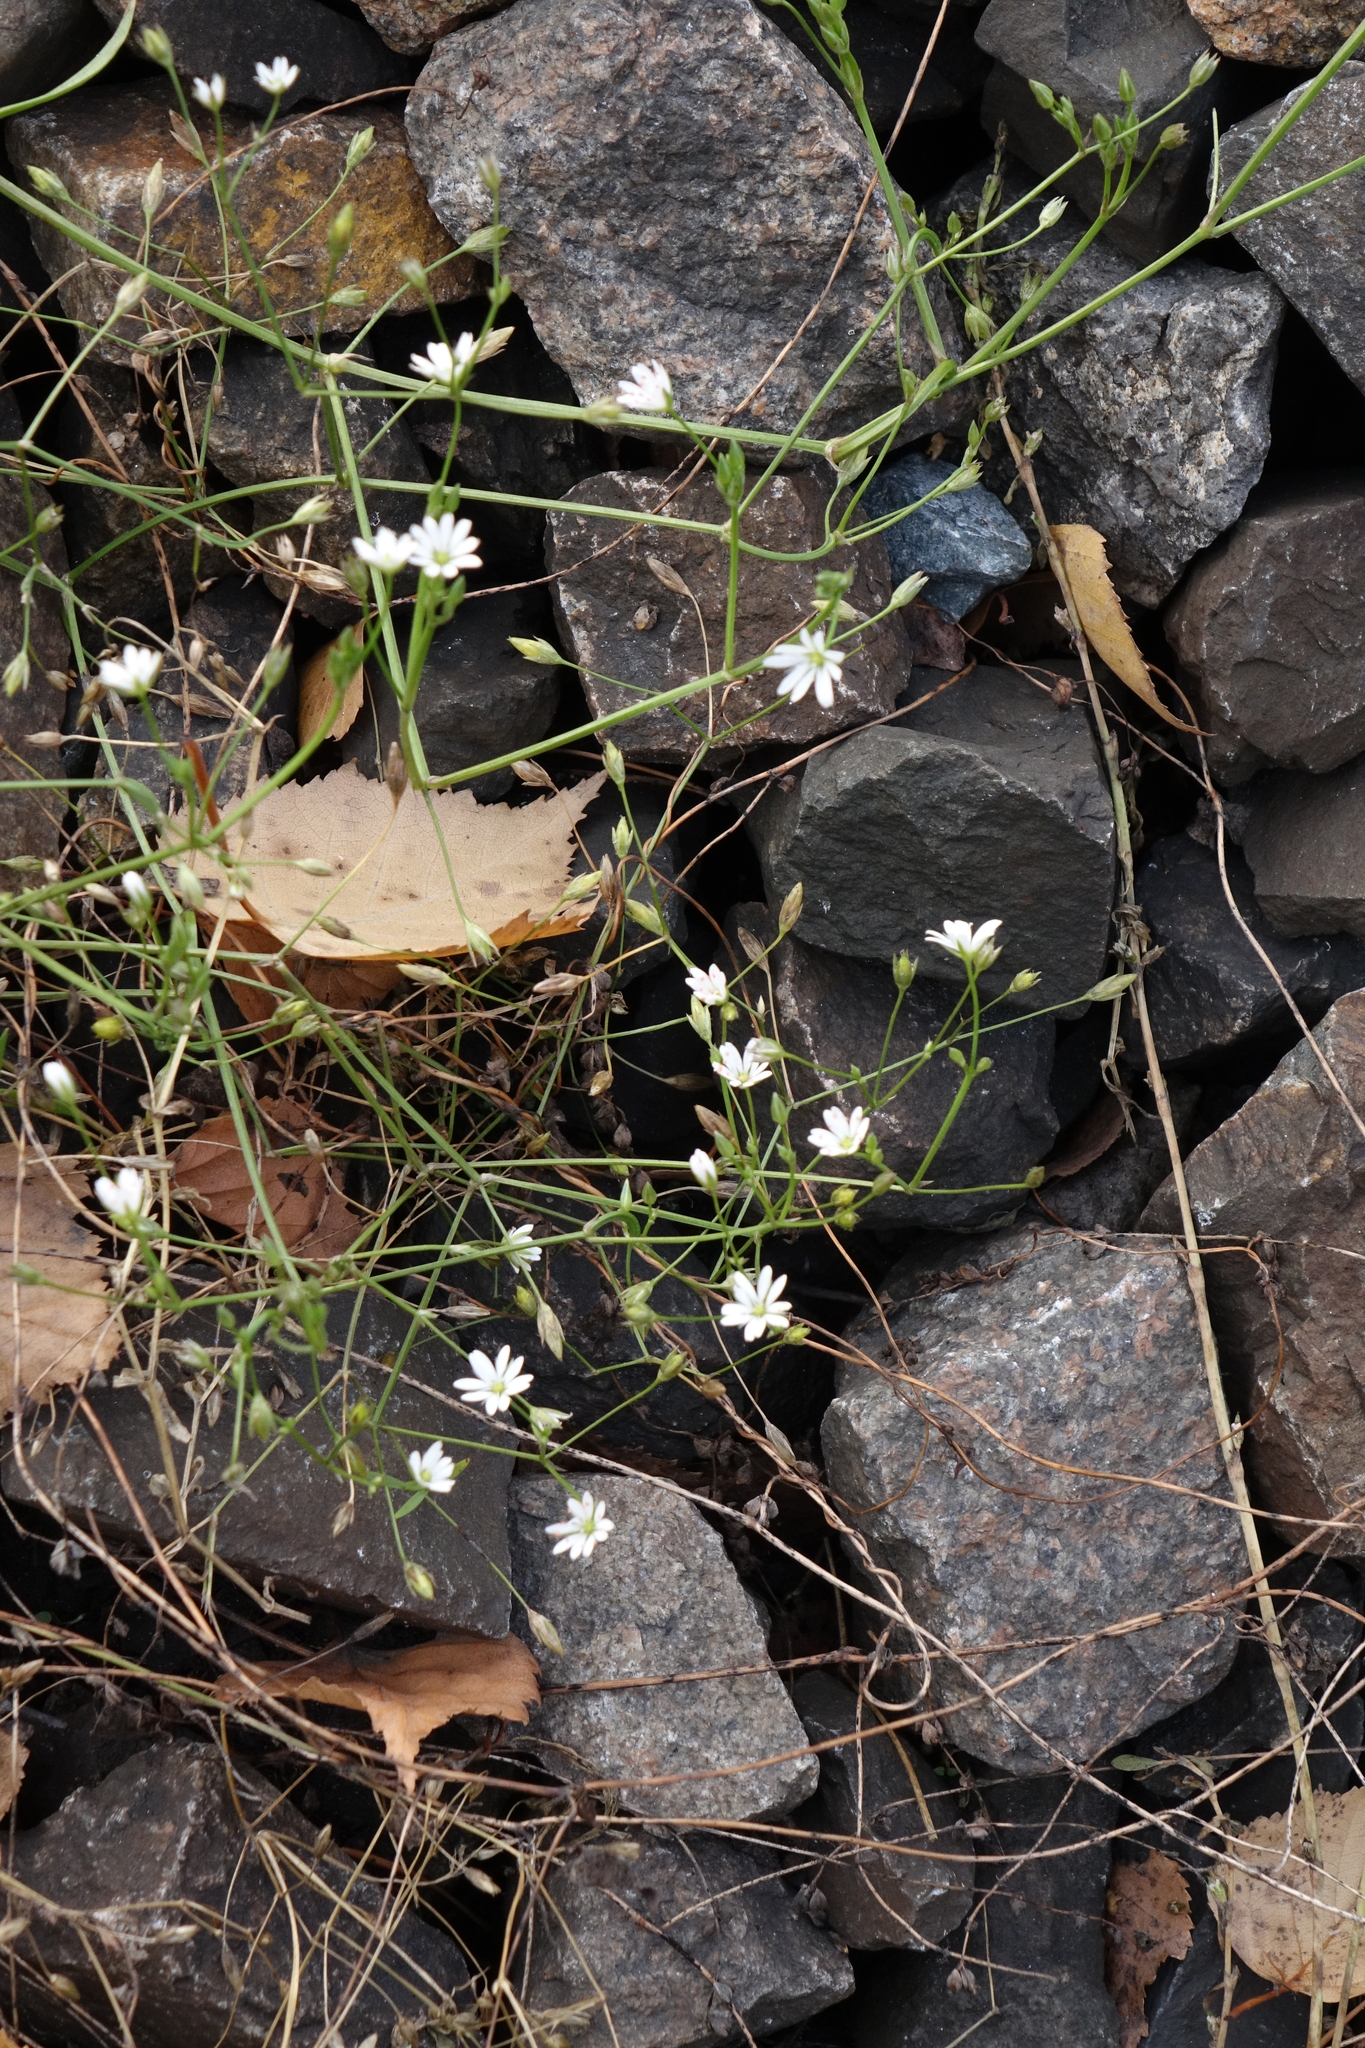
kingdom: Plantae
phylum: Tracheophyta
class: Magnoliopsida
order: Caryophyllales
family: Caryophyllaceae
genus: Stellaria
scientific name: Stellaria graminea
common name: Grass-like starwort
